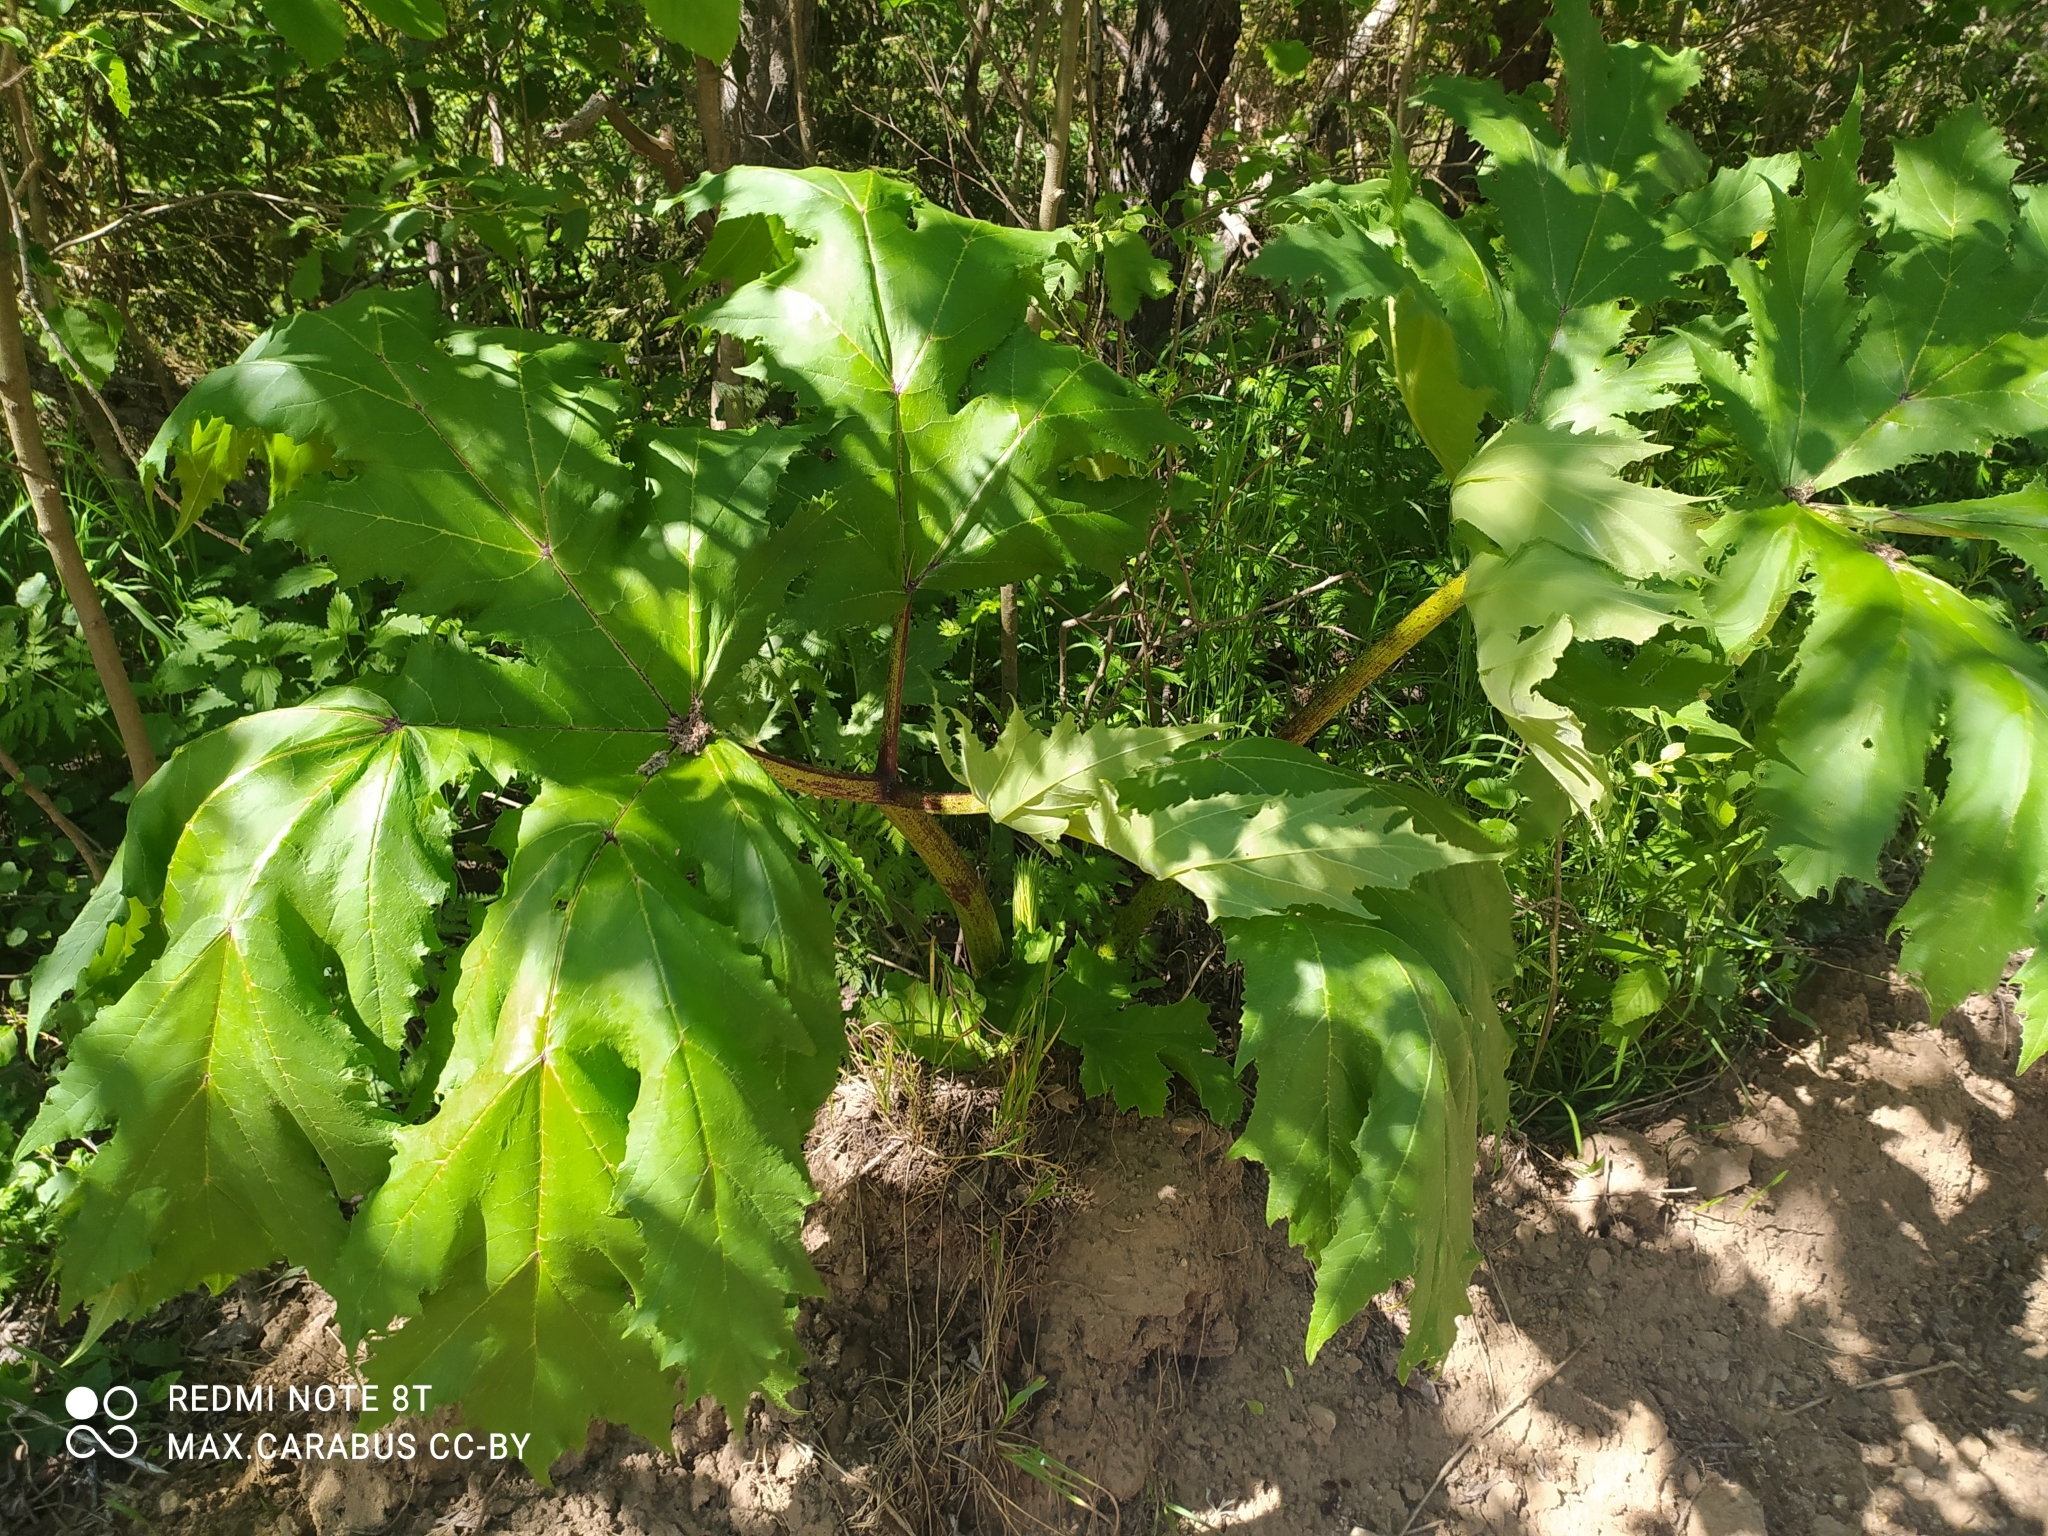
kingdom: Plantae
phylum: Tracheophyta
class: Magnoliopsida
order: Apiales
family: Apiaceae
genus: Heracleum
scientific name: Heracleum sosnowskyi
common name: Sosnowsky's hogweed
